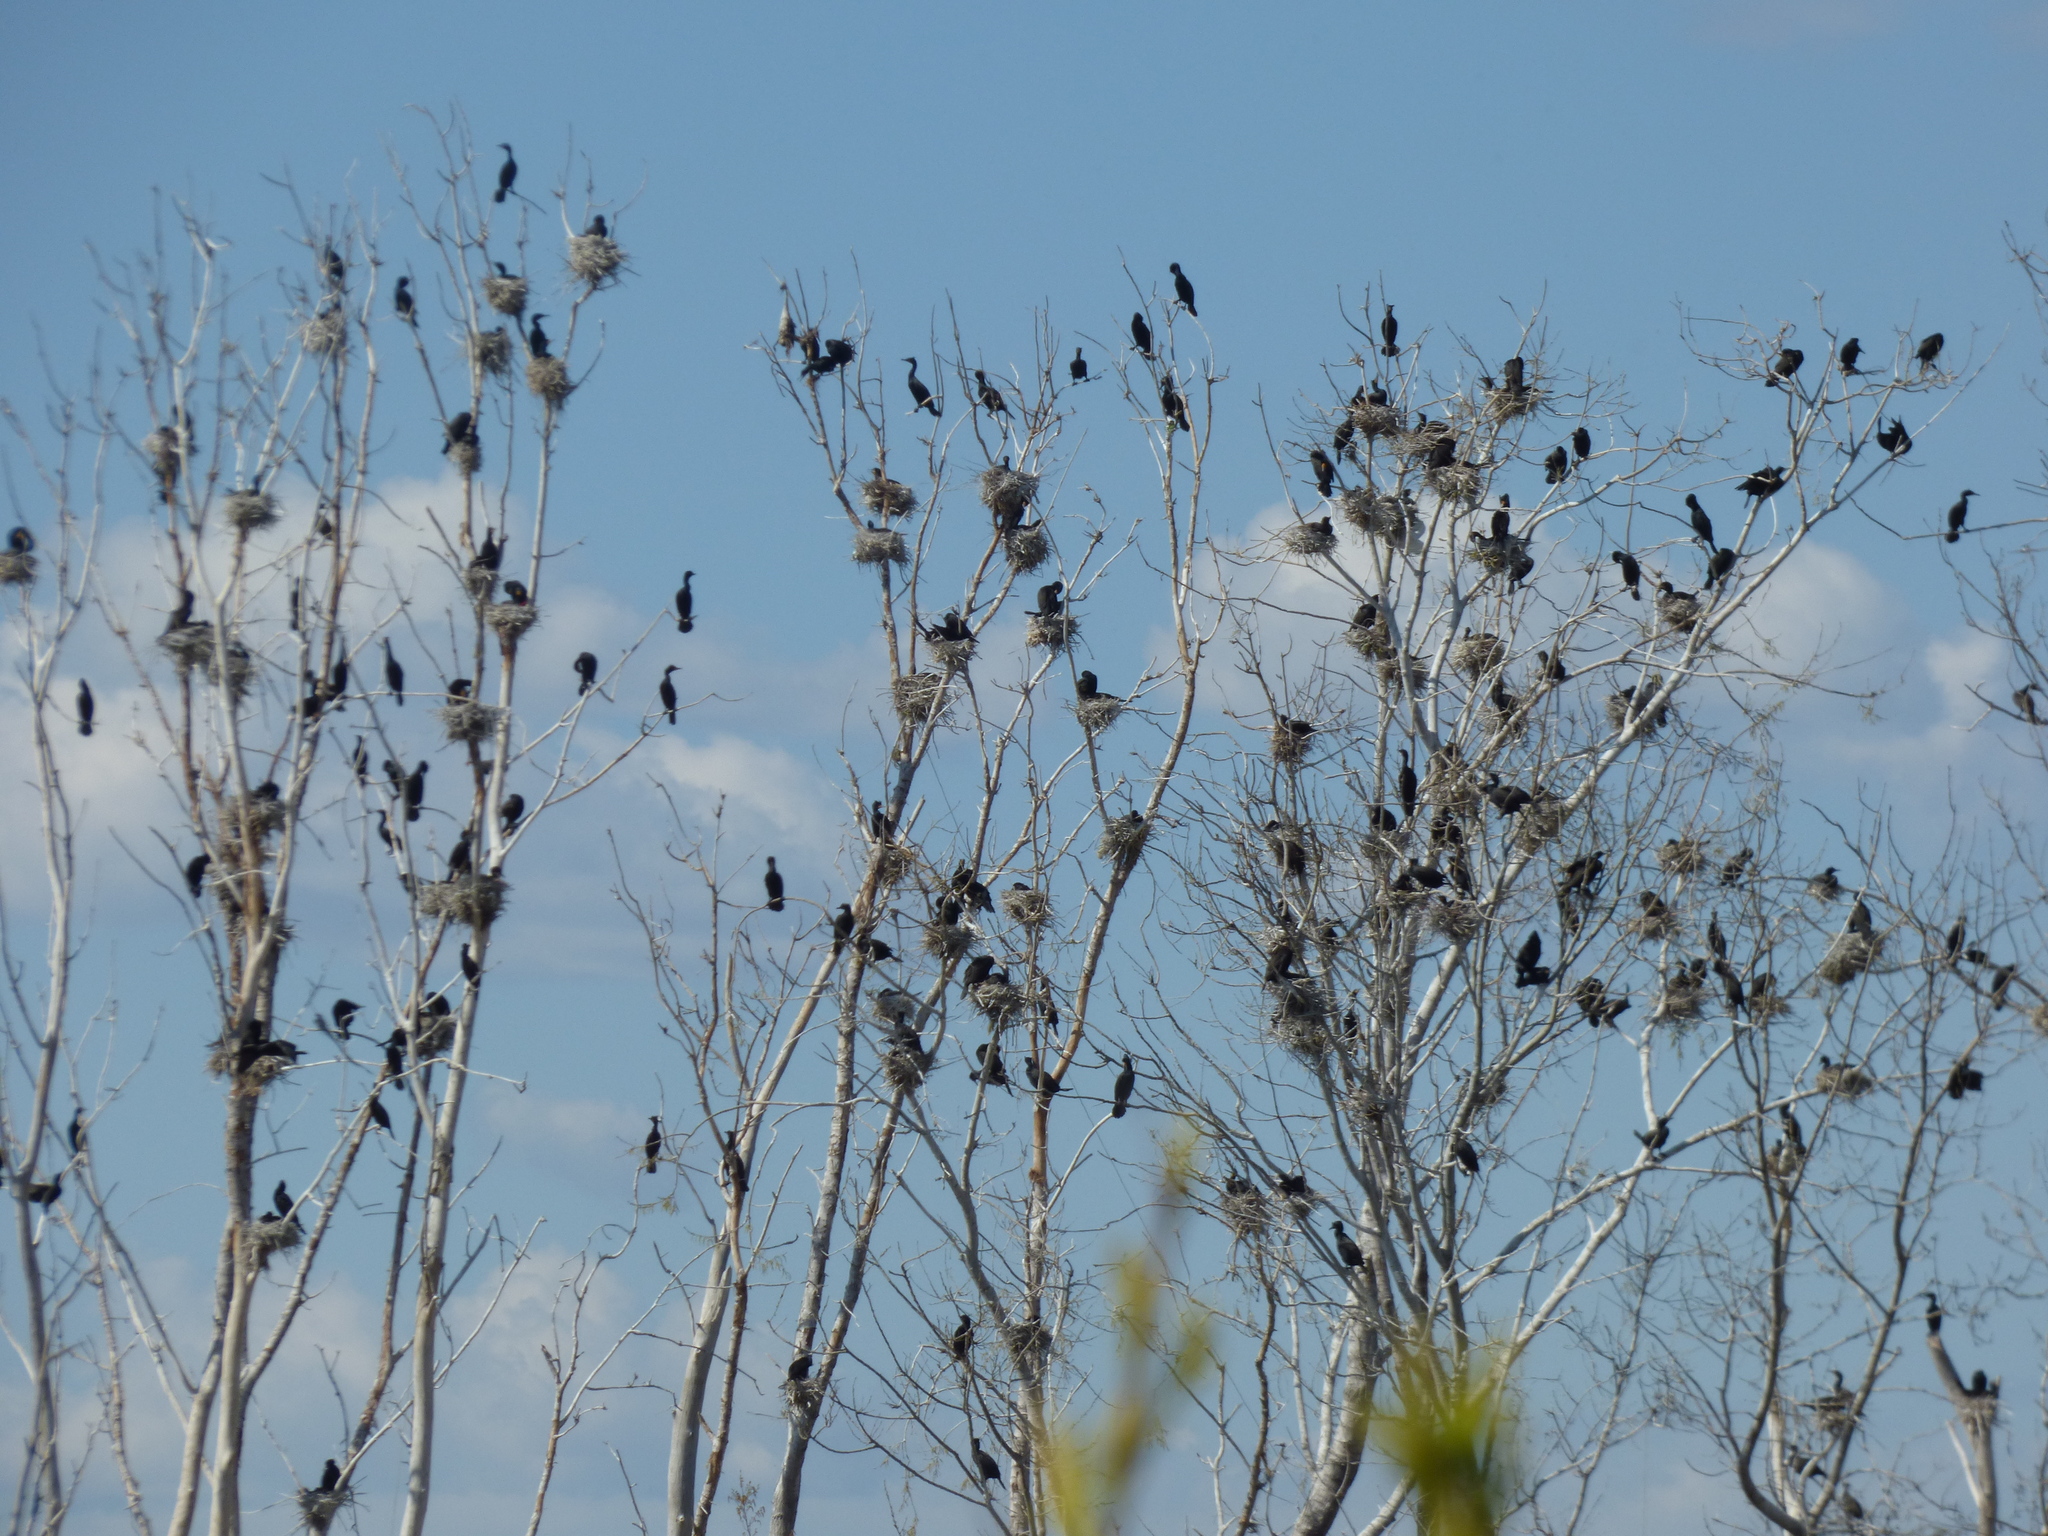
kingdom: Animalia
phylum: Chordata
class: Aves
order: Suliformes
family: Phalacrocoracidae
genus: Phalacrocorax
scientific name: Phalacrocorax auritus
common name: Double-crested cormorant
